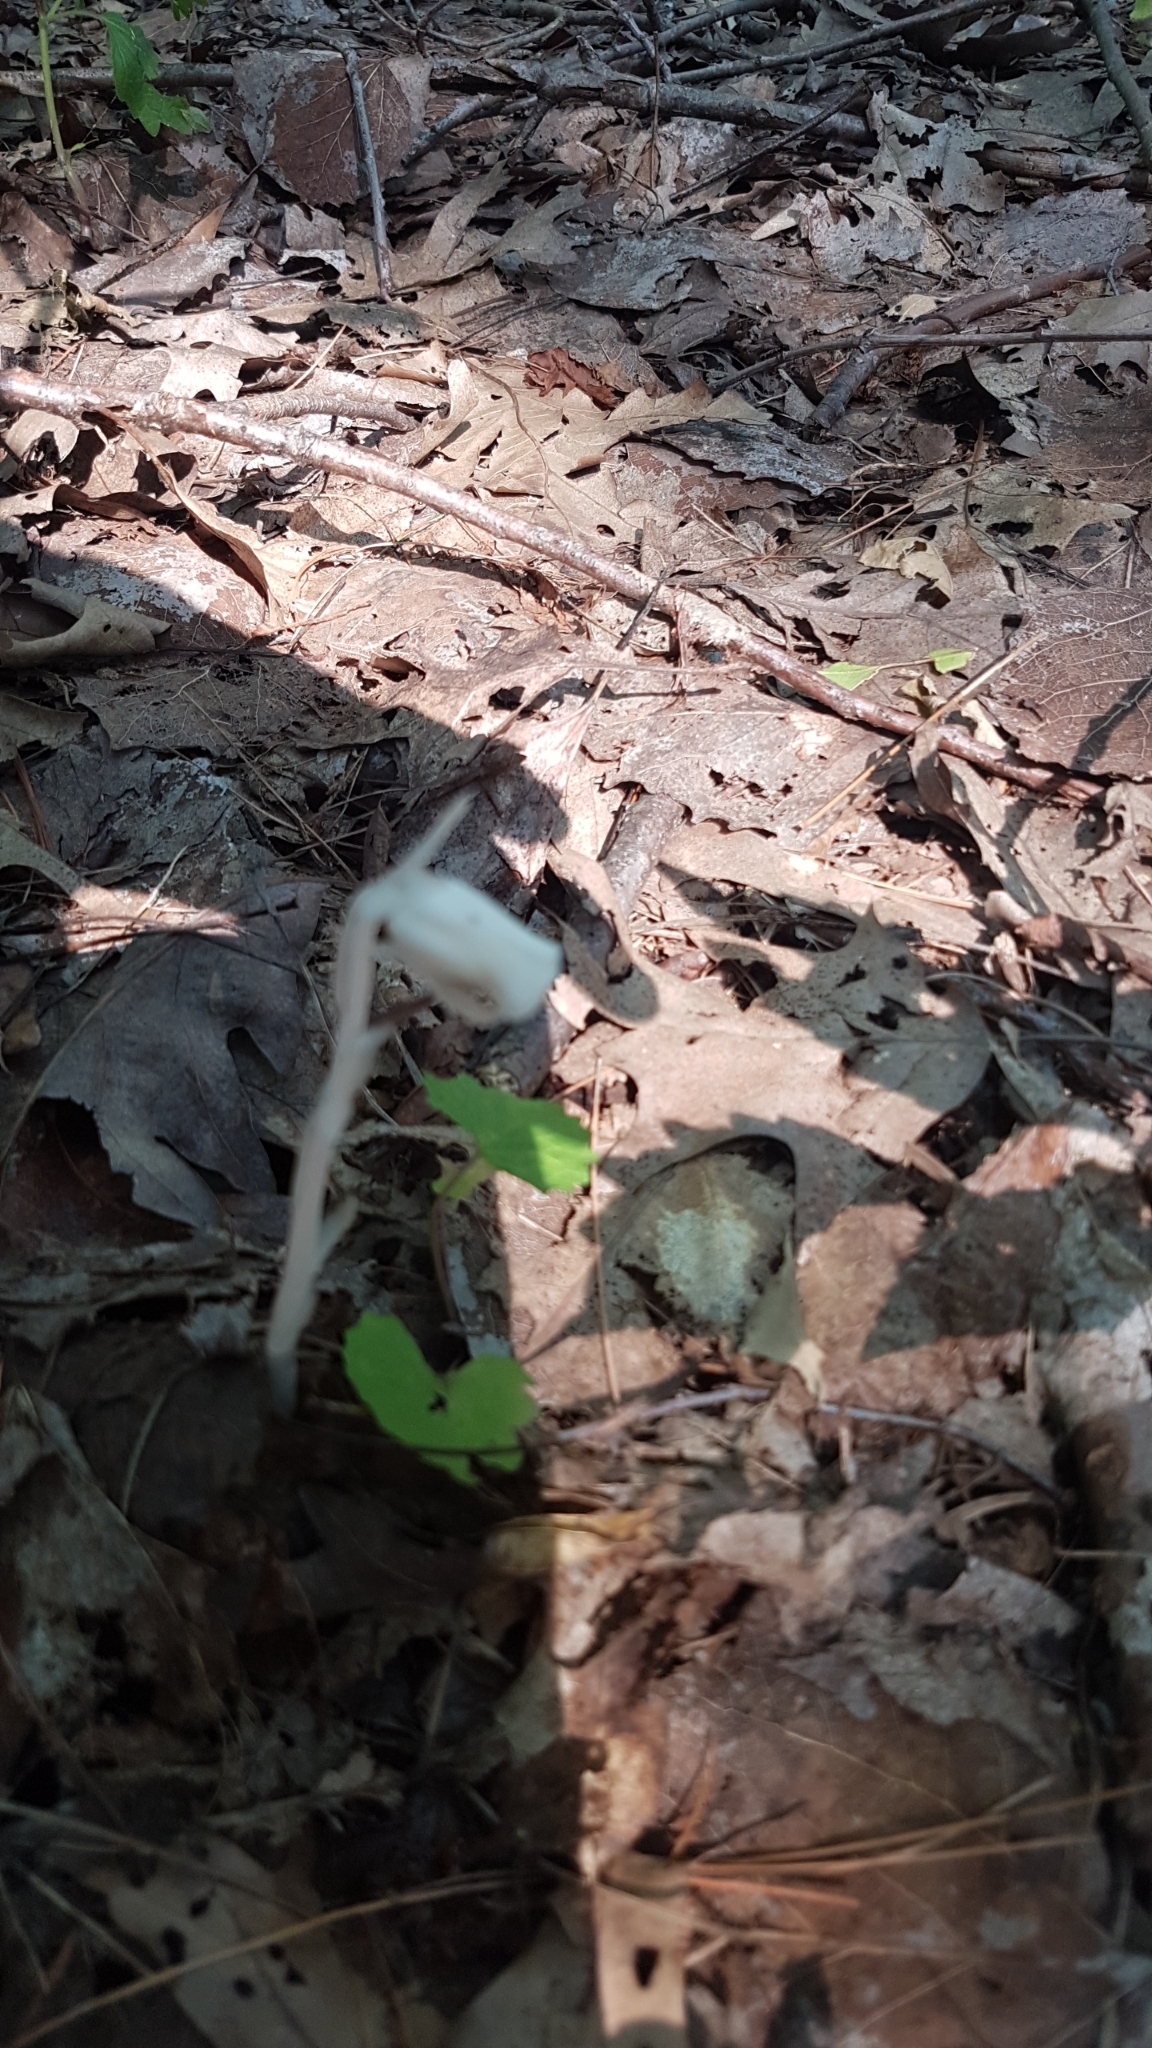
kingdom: Plantae
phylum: Tracheophyta
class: Magnoliopsida
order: Ericales
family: Ericaceae
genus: Monotropa
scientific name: Monotropa uniflora
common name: Convulsion root
